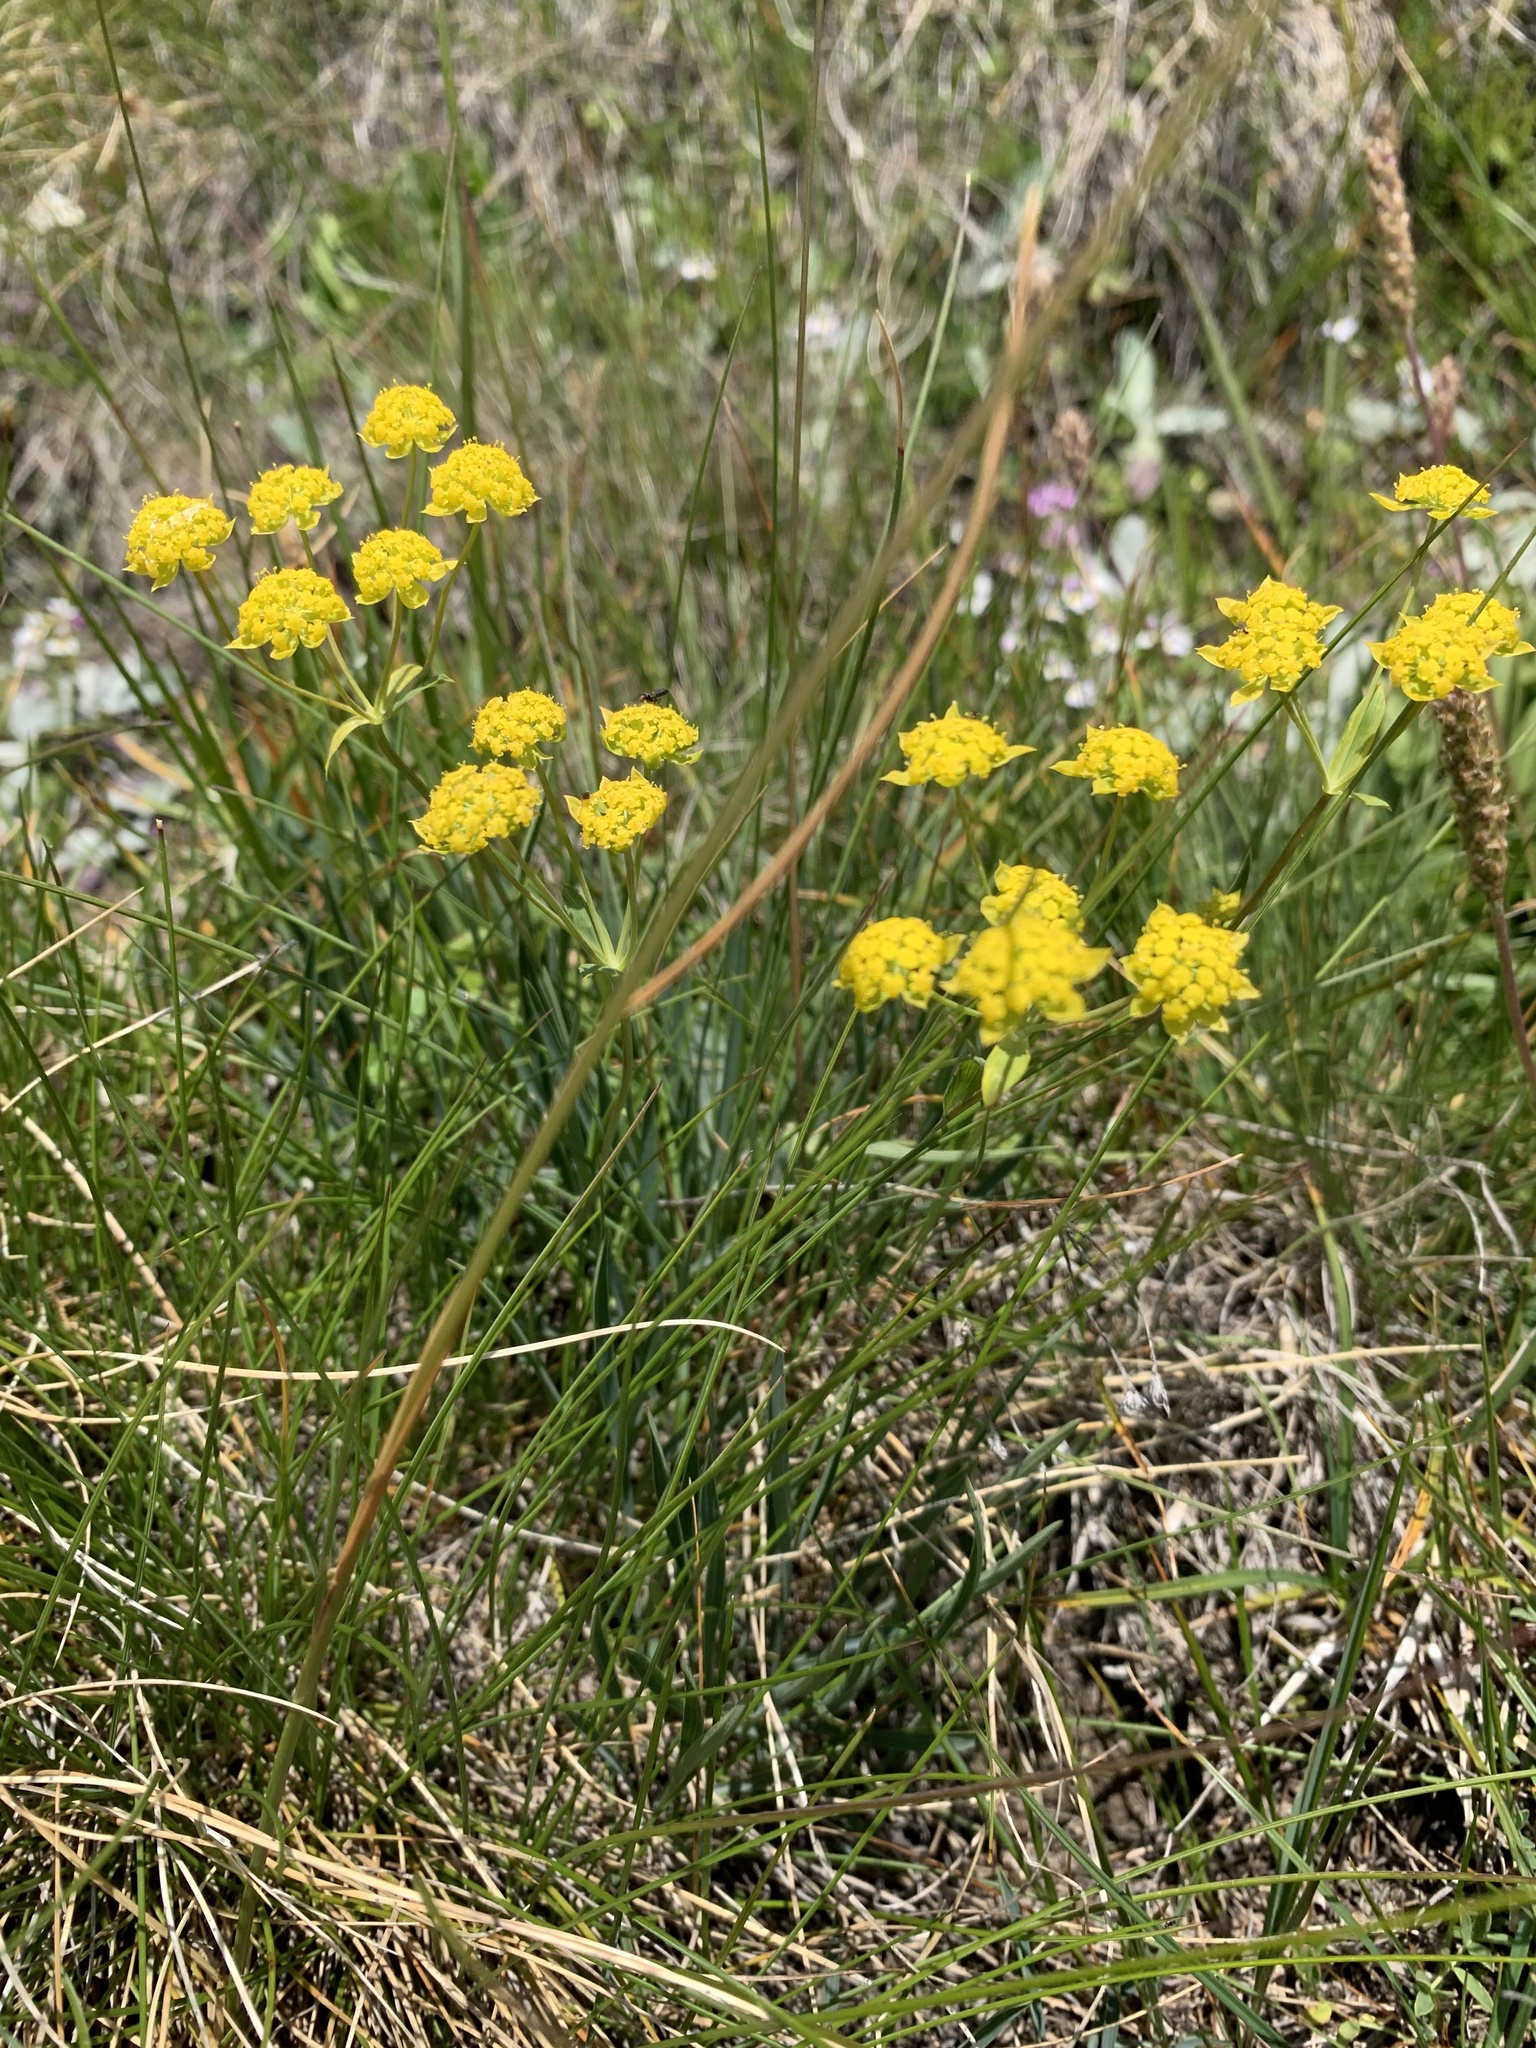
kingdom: Plantae
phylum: Tracheophyta
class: Magnoliopsida
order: Apiales
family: Apiaceae
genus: Bupleurum
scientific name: Bupleurum ranunculoides
